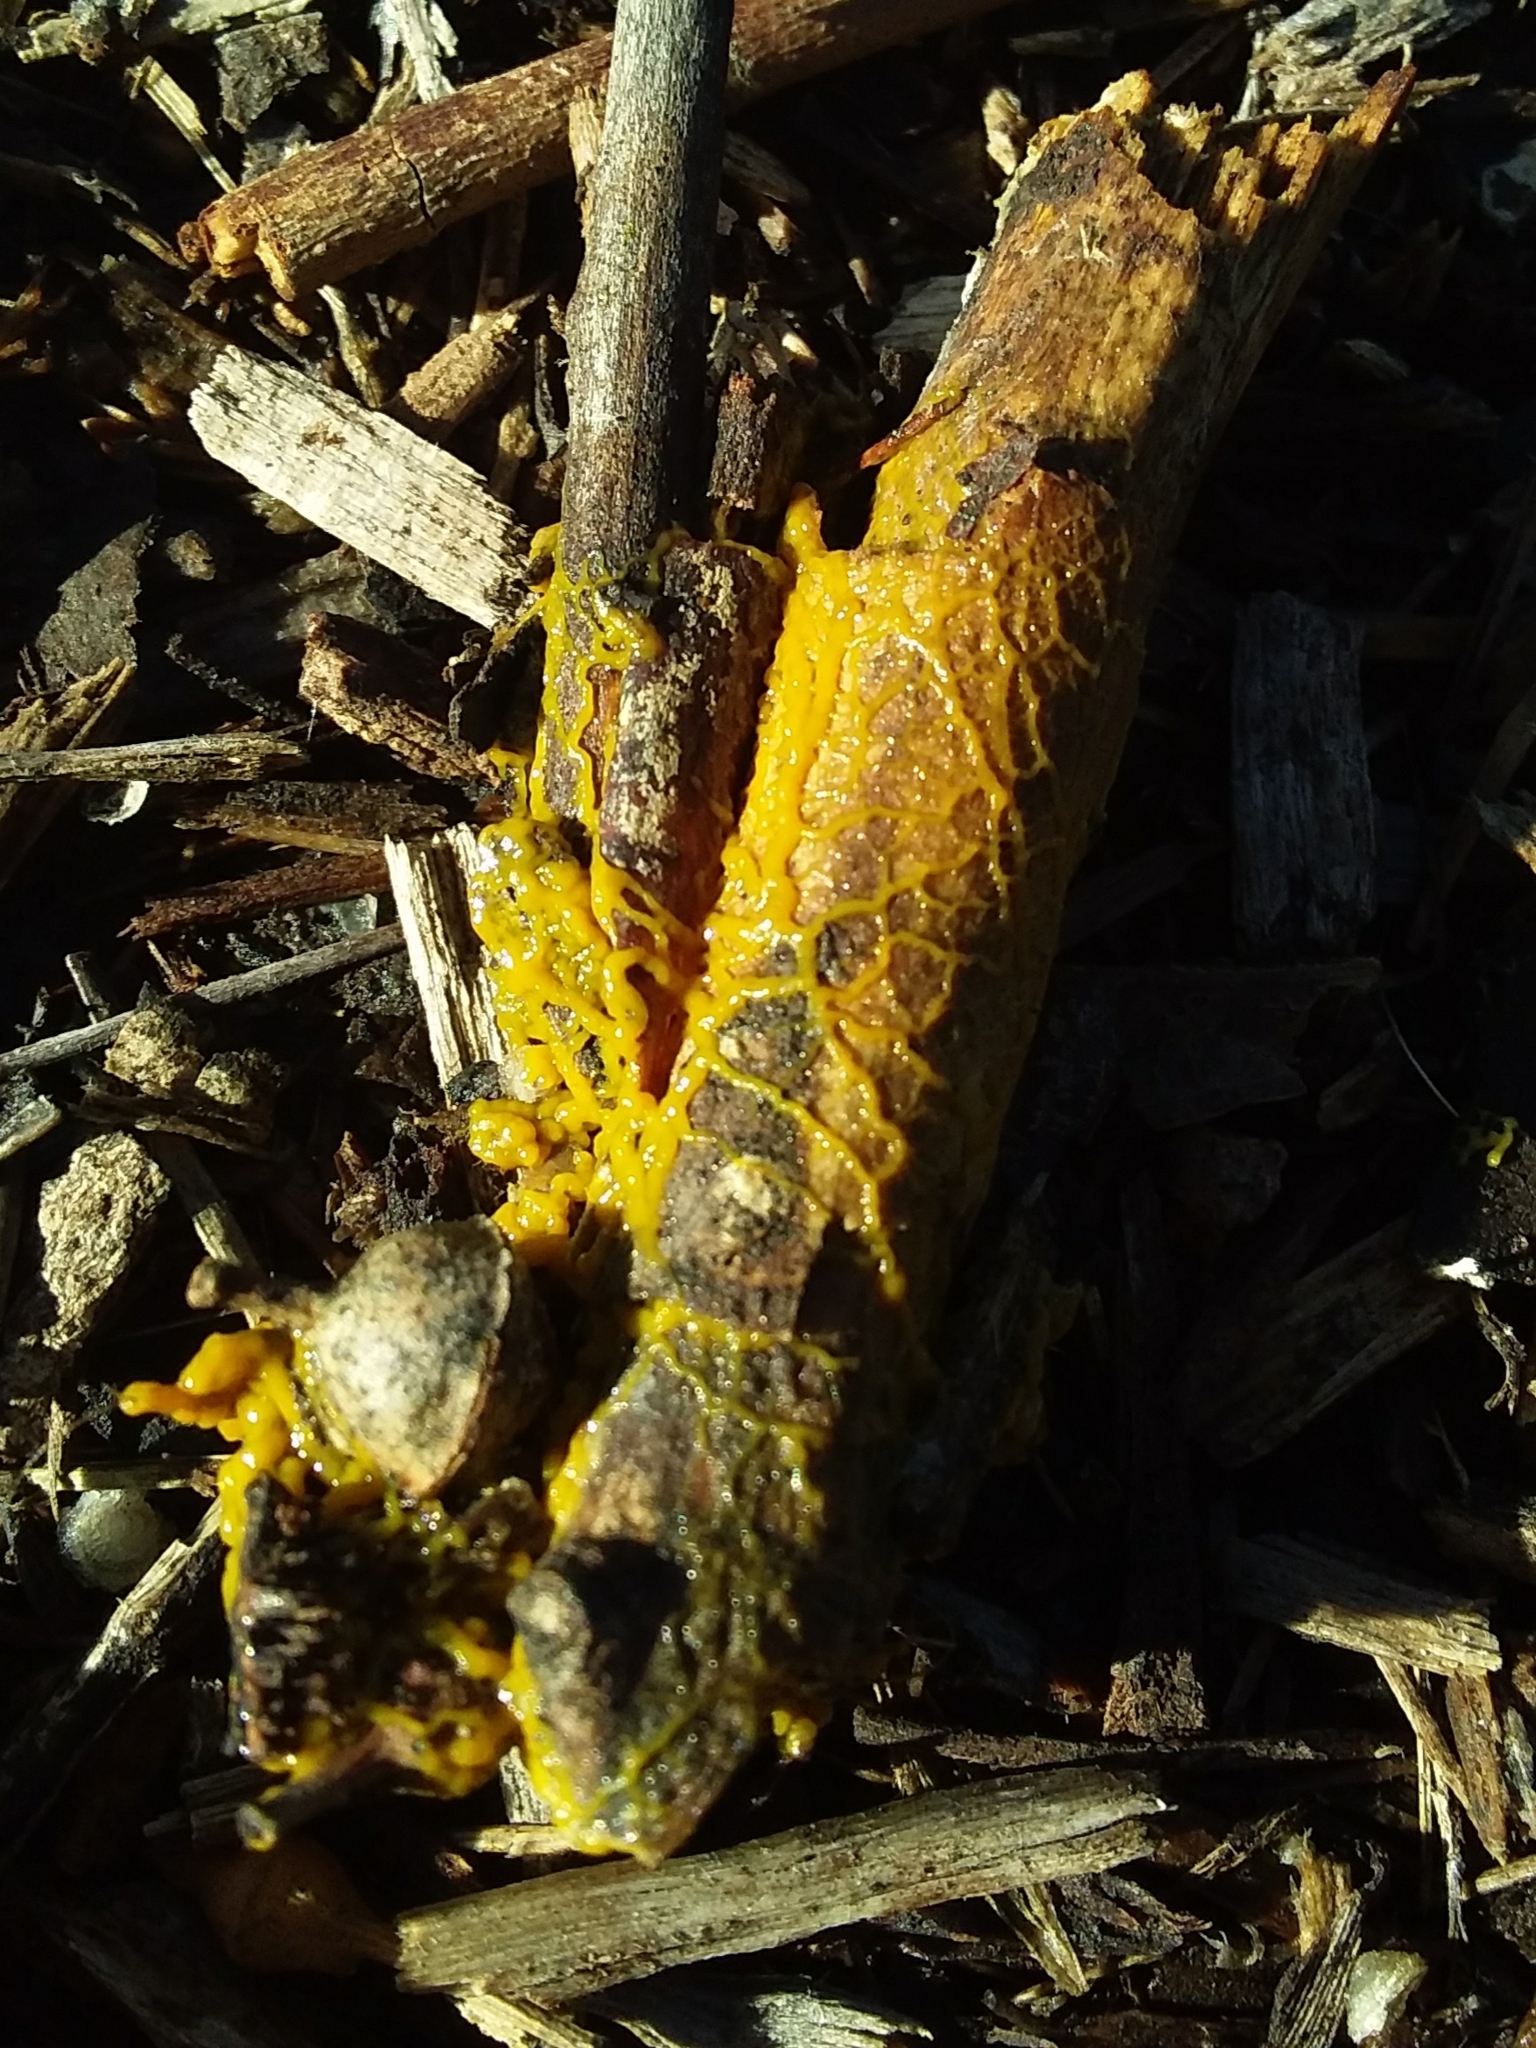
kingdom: Protozoa
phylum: Mycetozoa
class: Myxomycetes
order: Physarales
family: Physaraceae
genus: Leocarpus
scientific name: Leocarpus fragilis
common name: Insect-egg slime
